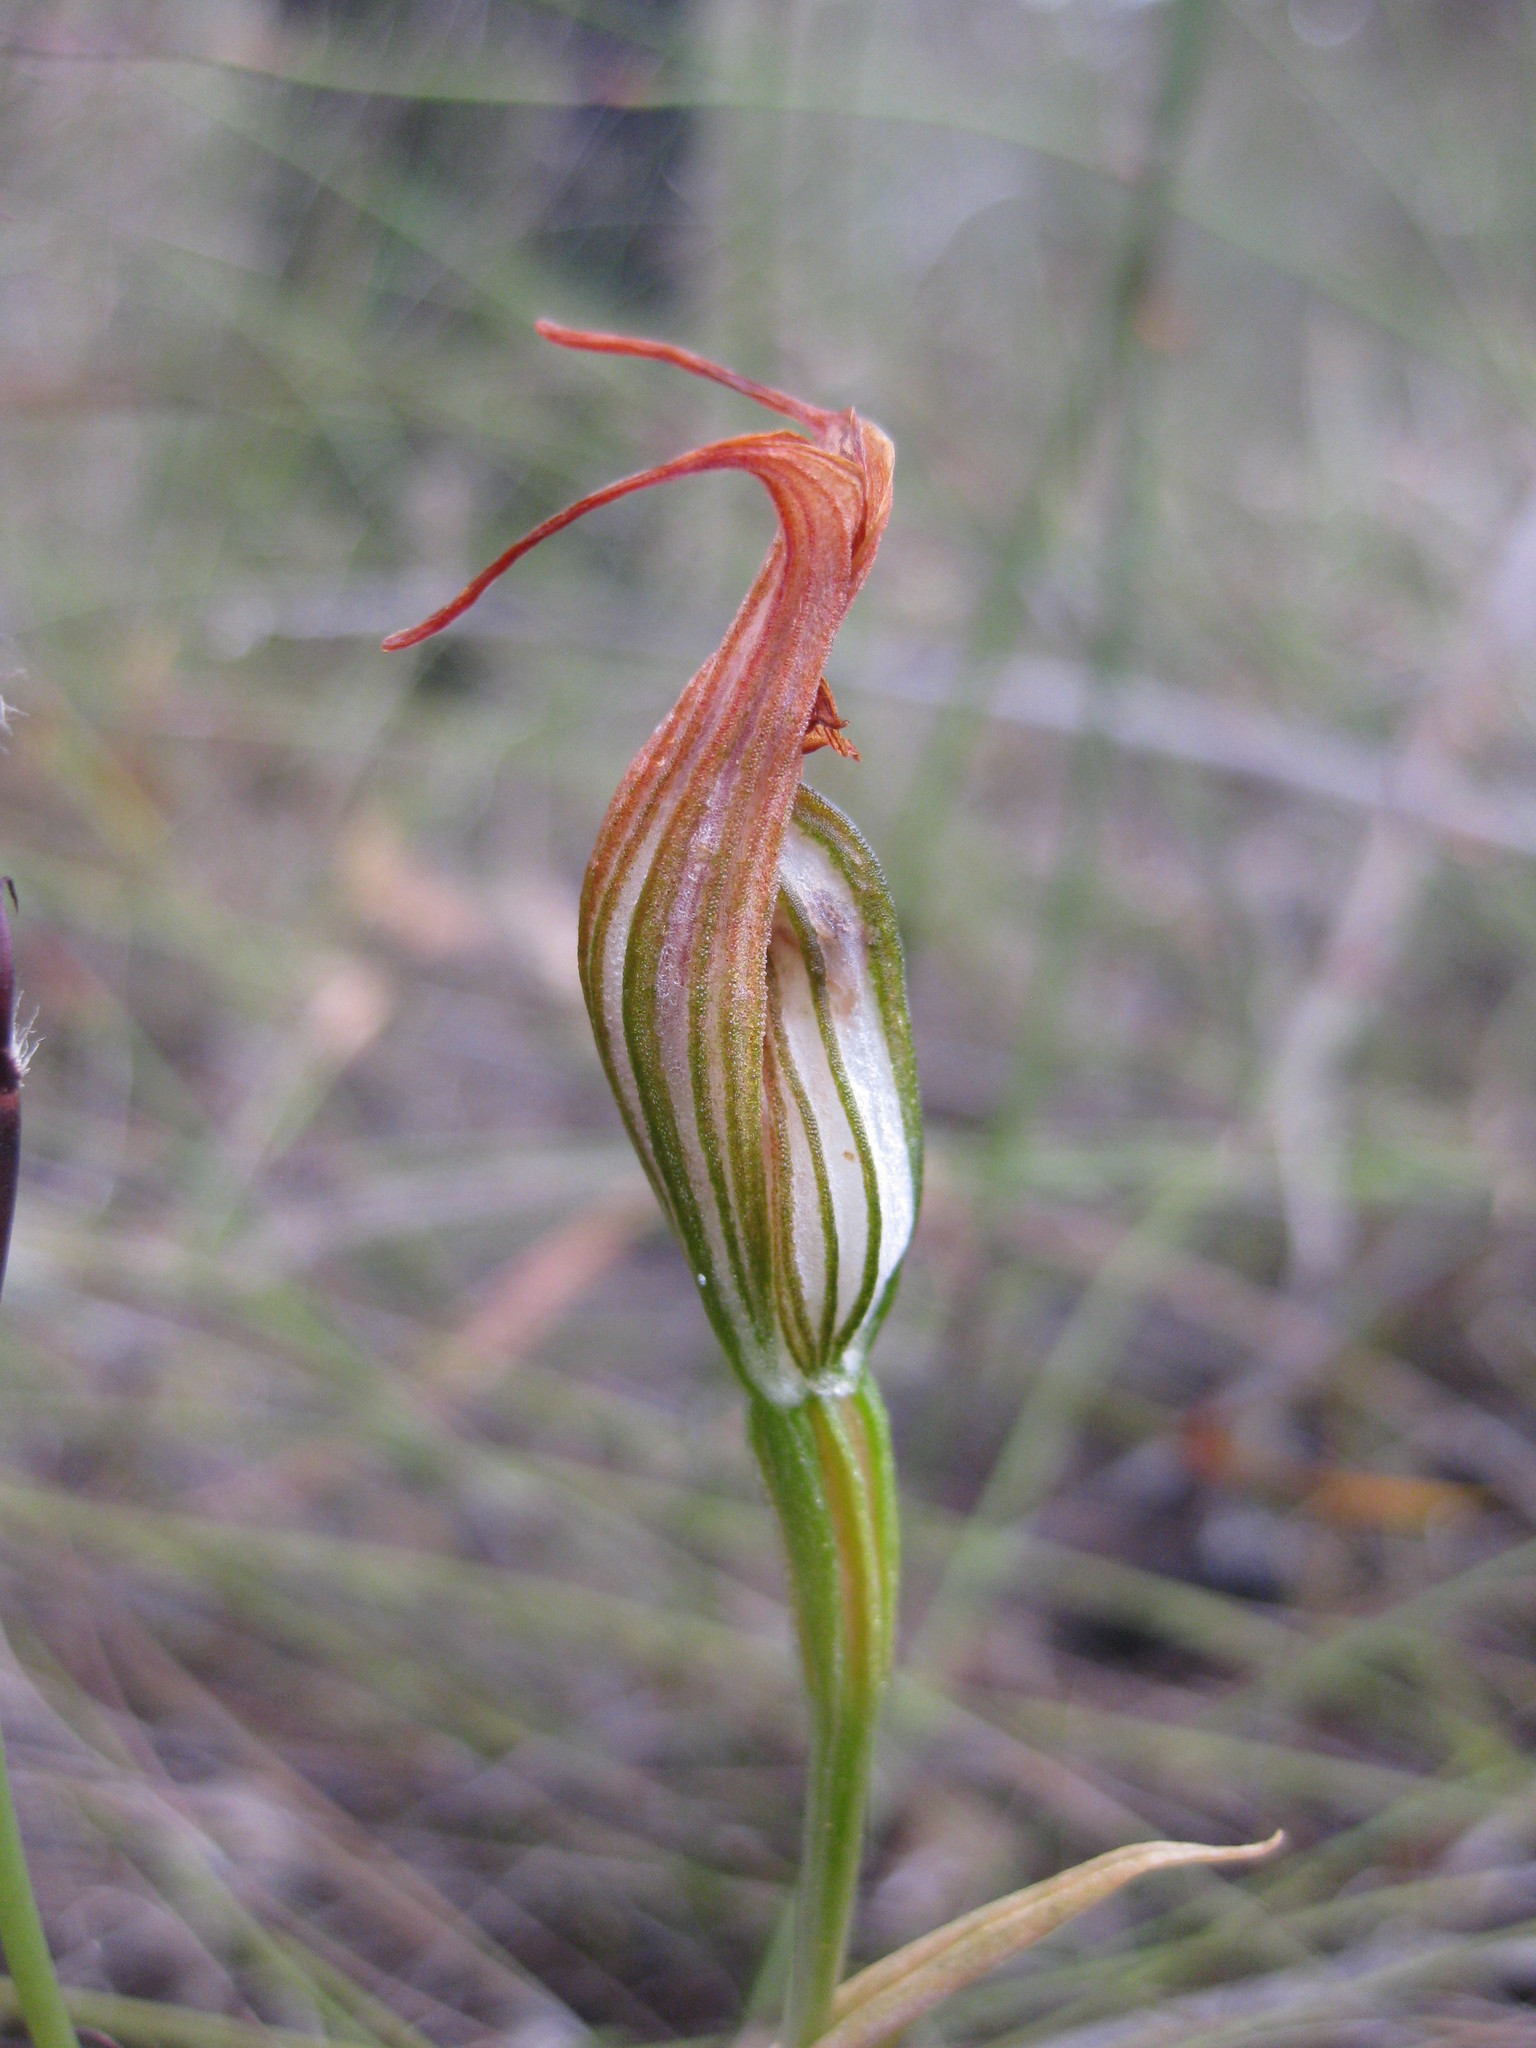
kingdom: Plantae
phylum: Tracheophyta
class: Liliopsida
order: Asparagales
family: Orchidaceae
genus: Pterostylis
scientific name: Pterostylis recurva
